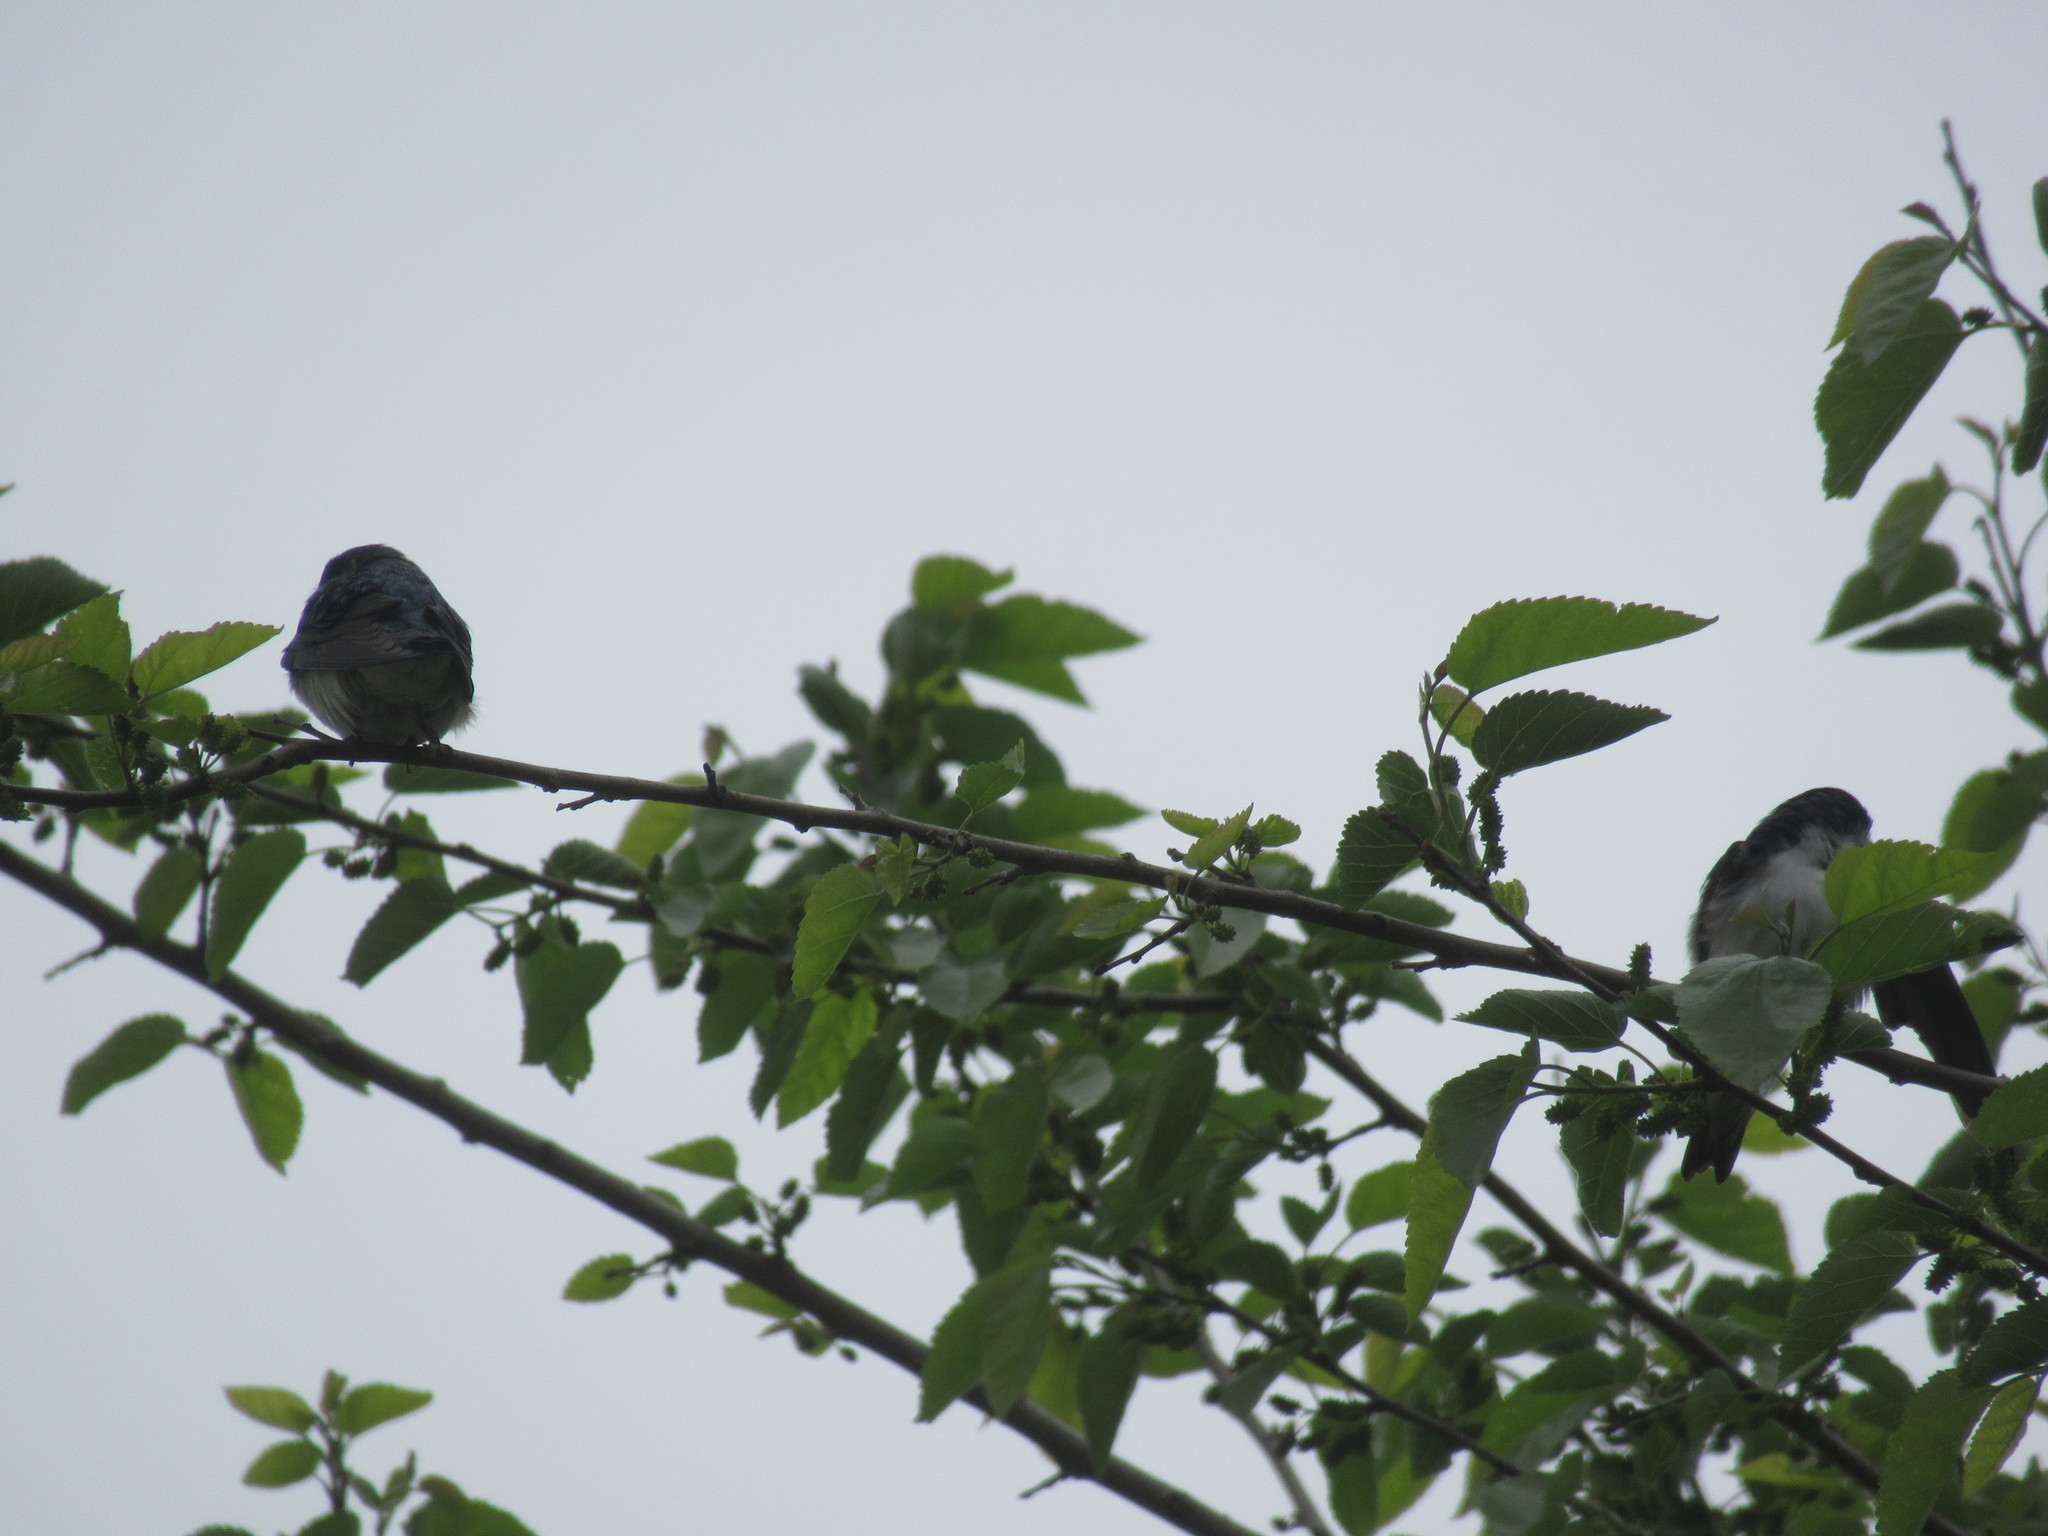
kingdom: Animalia
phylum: Chordata
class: Aves
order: Passeriformes
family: Hirundinidae
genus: Tachycineta
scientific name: Tachycineta bicolor
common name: Tree swallow
